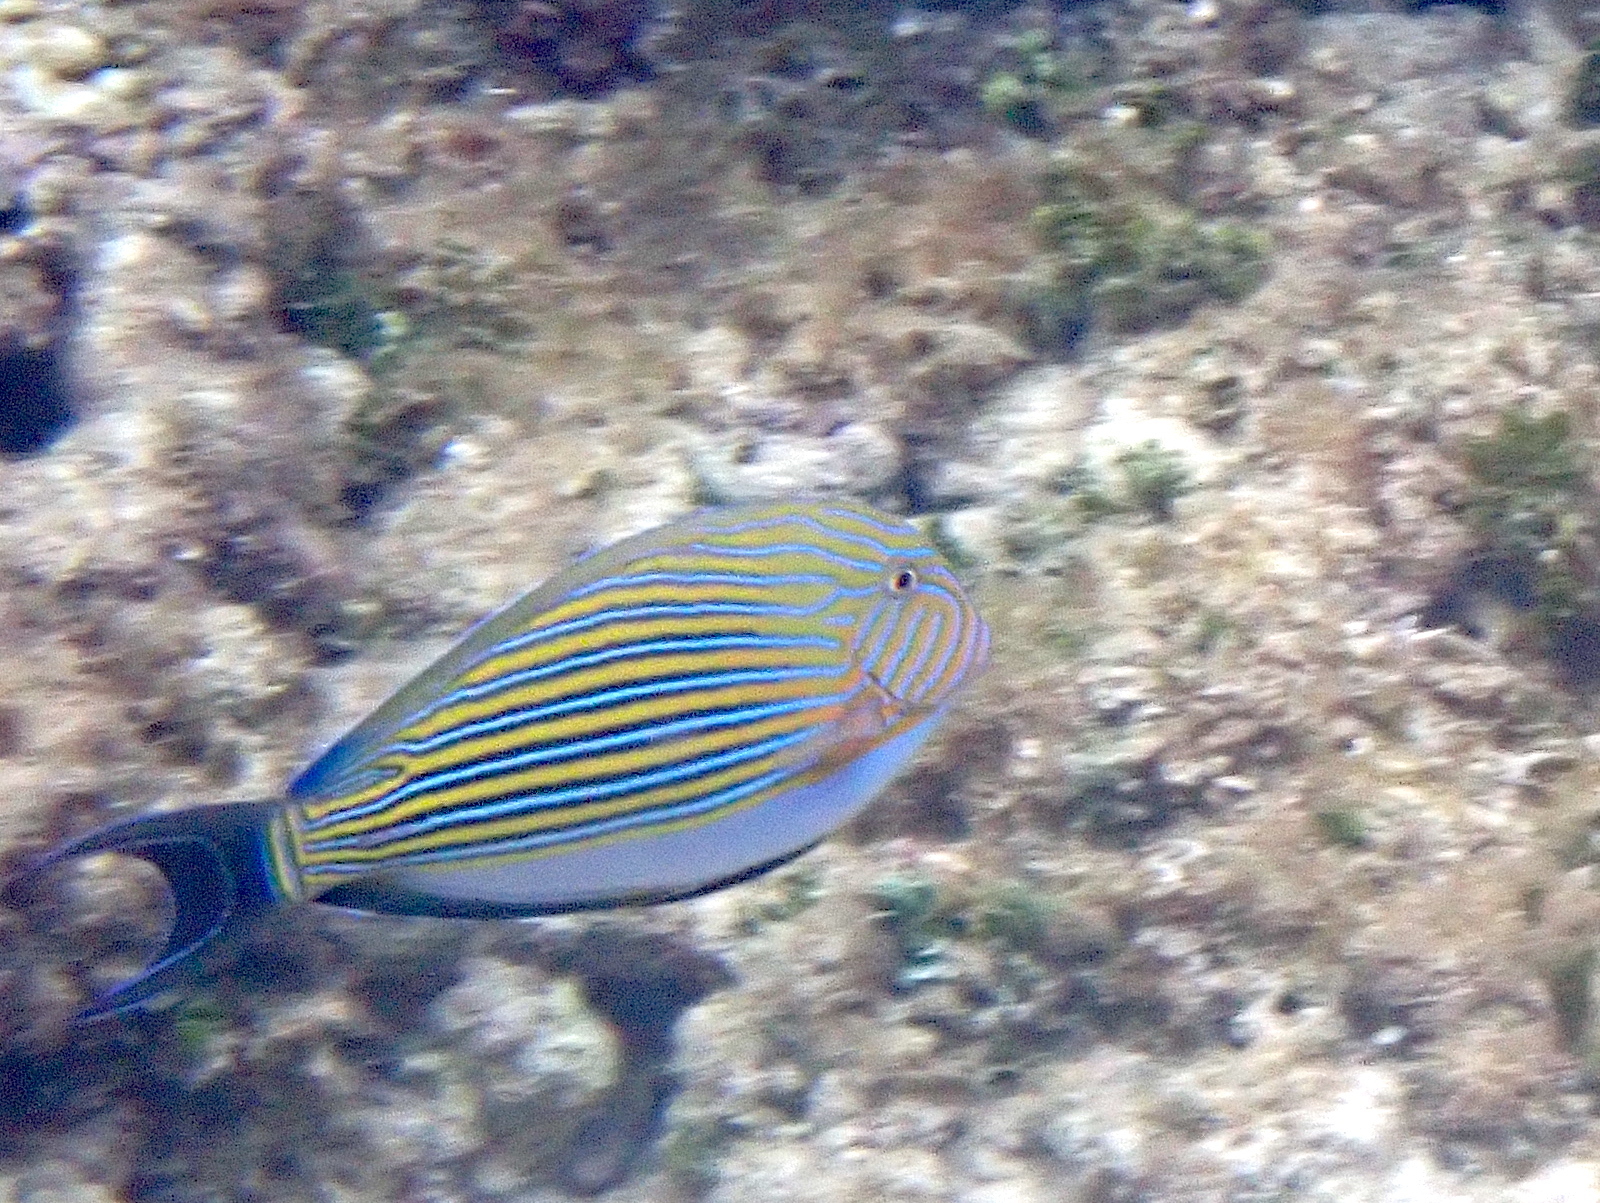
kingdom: Animalia
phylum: Chordata
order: Perciformes
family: Acanthuridae
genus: Acanthurus
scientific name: Acanthurus lineatus
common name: Striped surgeonfish
